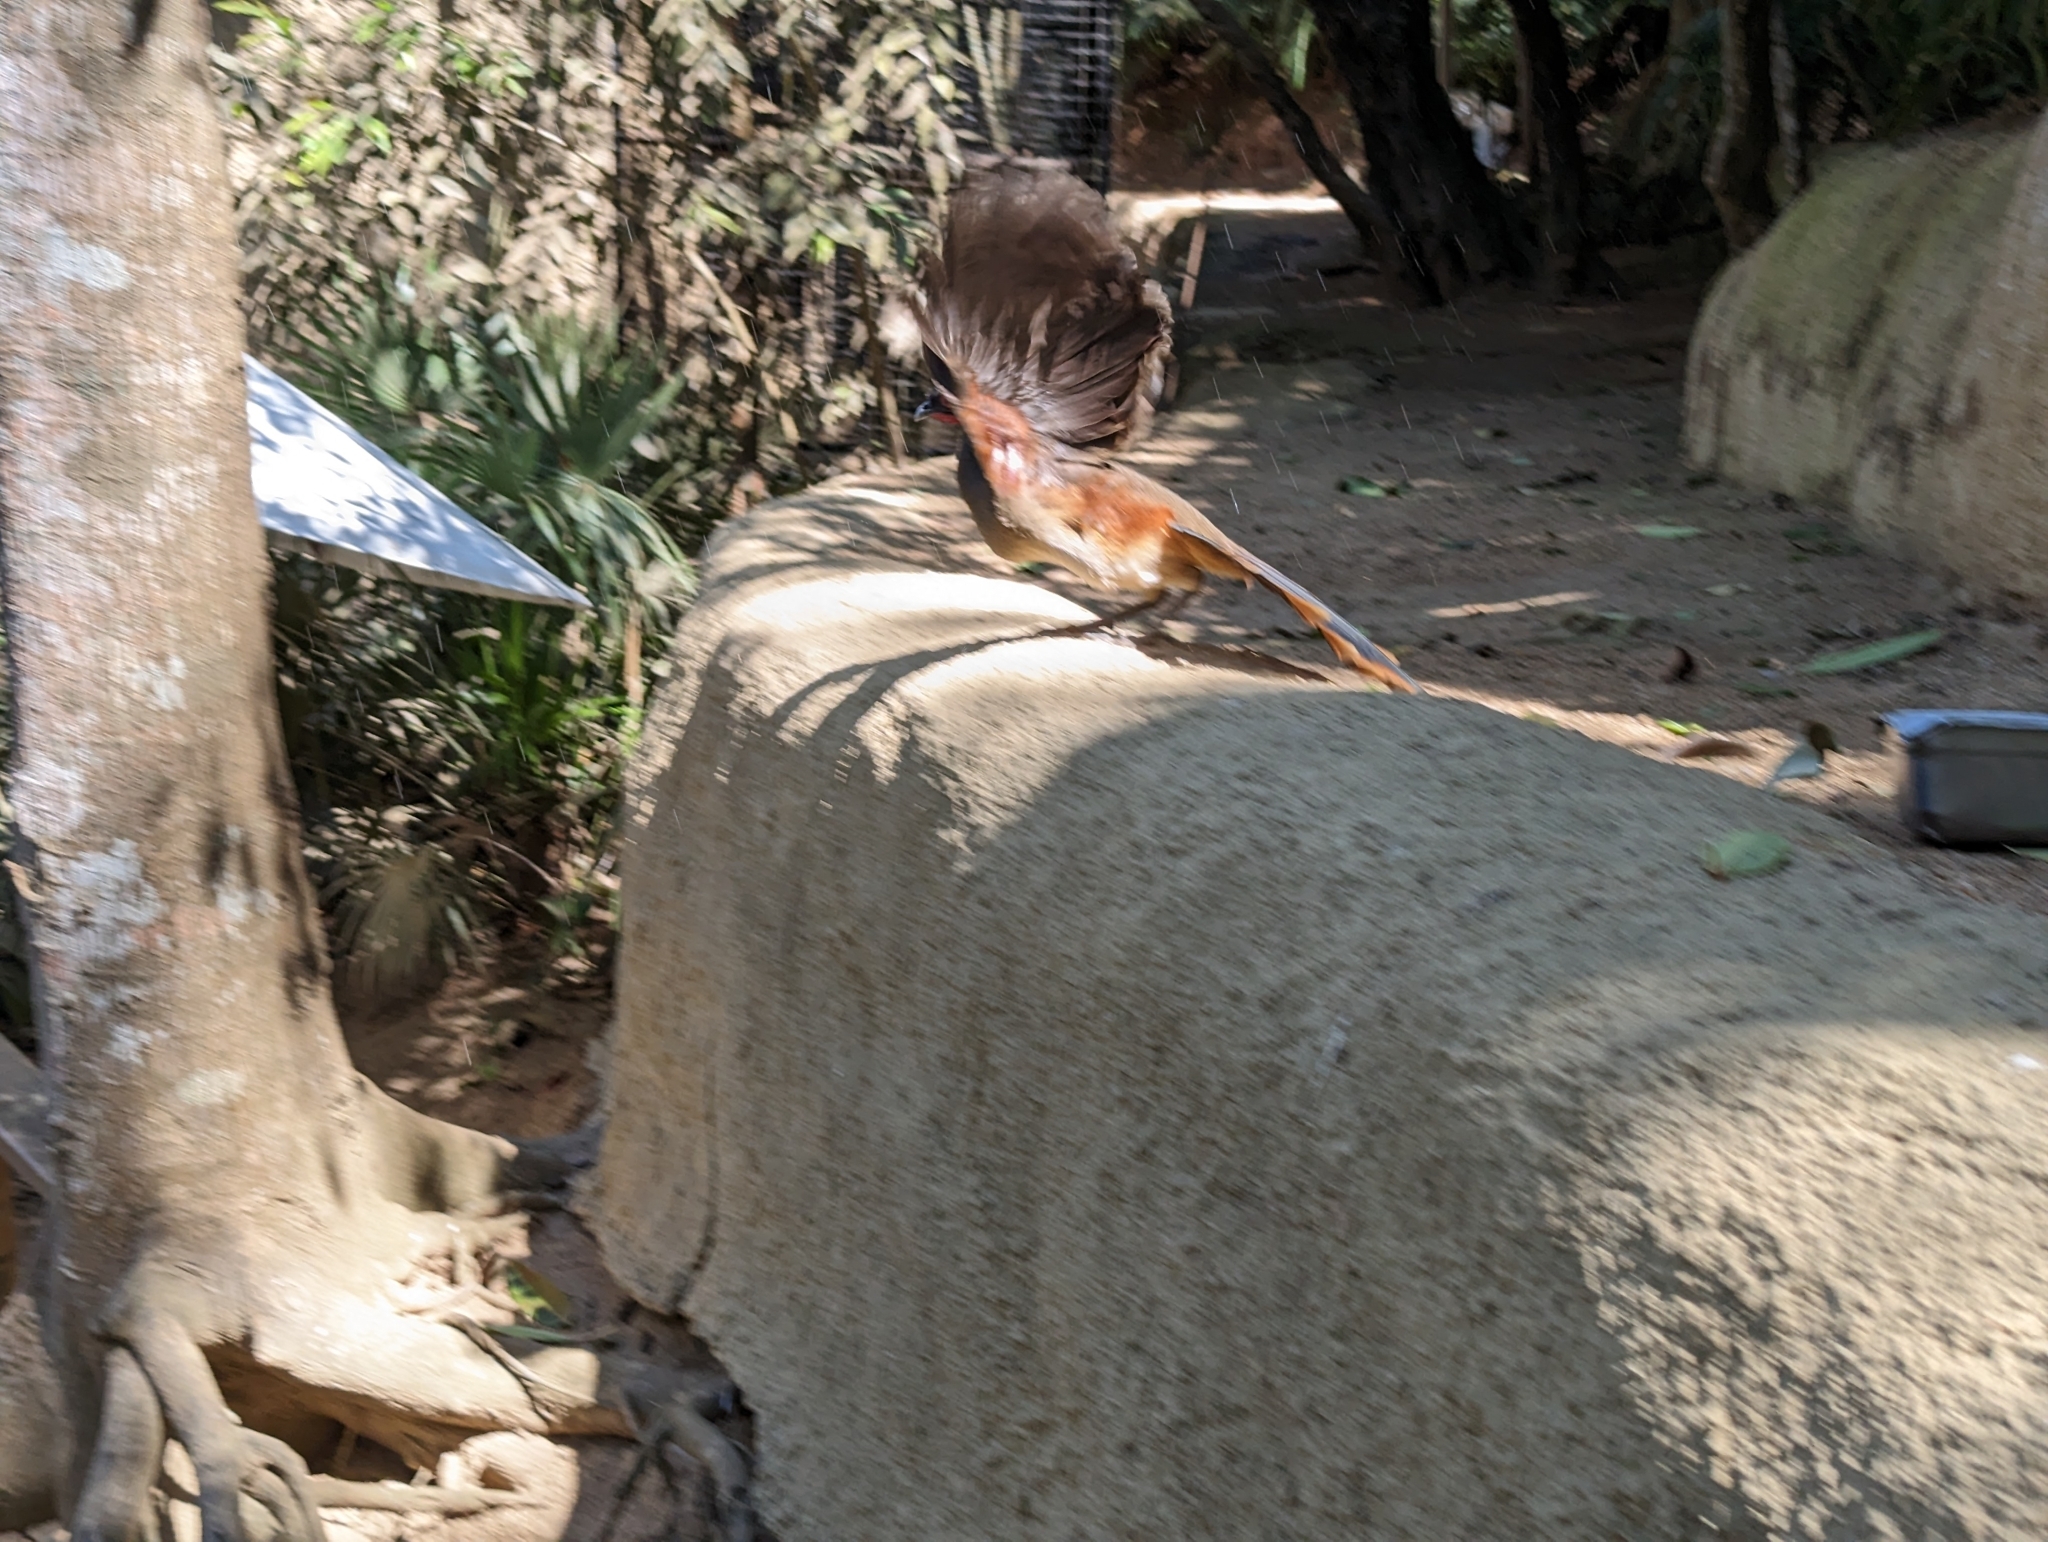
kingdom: Animalia
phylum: Chordata
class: Aves
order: Galliformes
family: Cracidae
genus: Ortalis
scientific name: Ortalis poliocephala
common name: West mexican chachalaca
